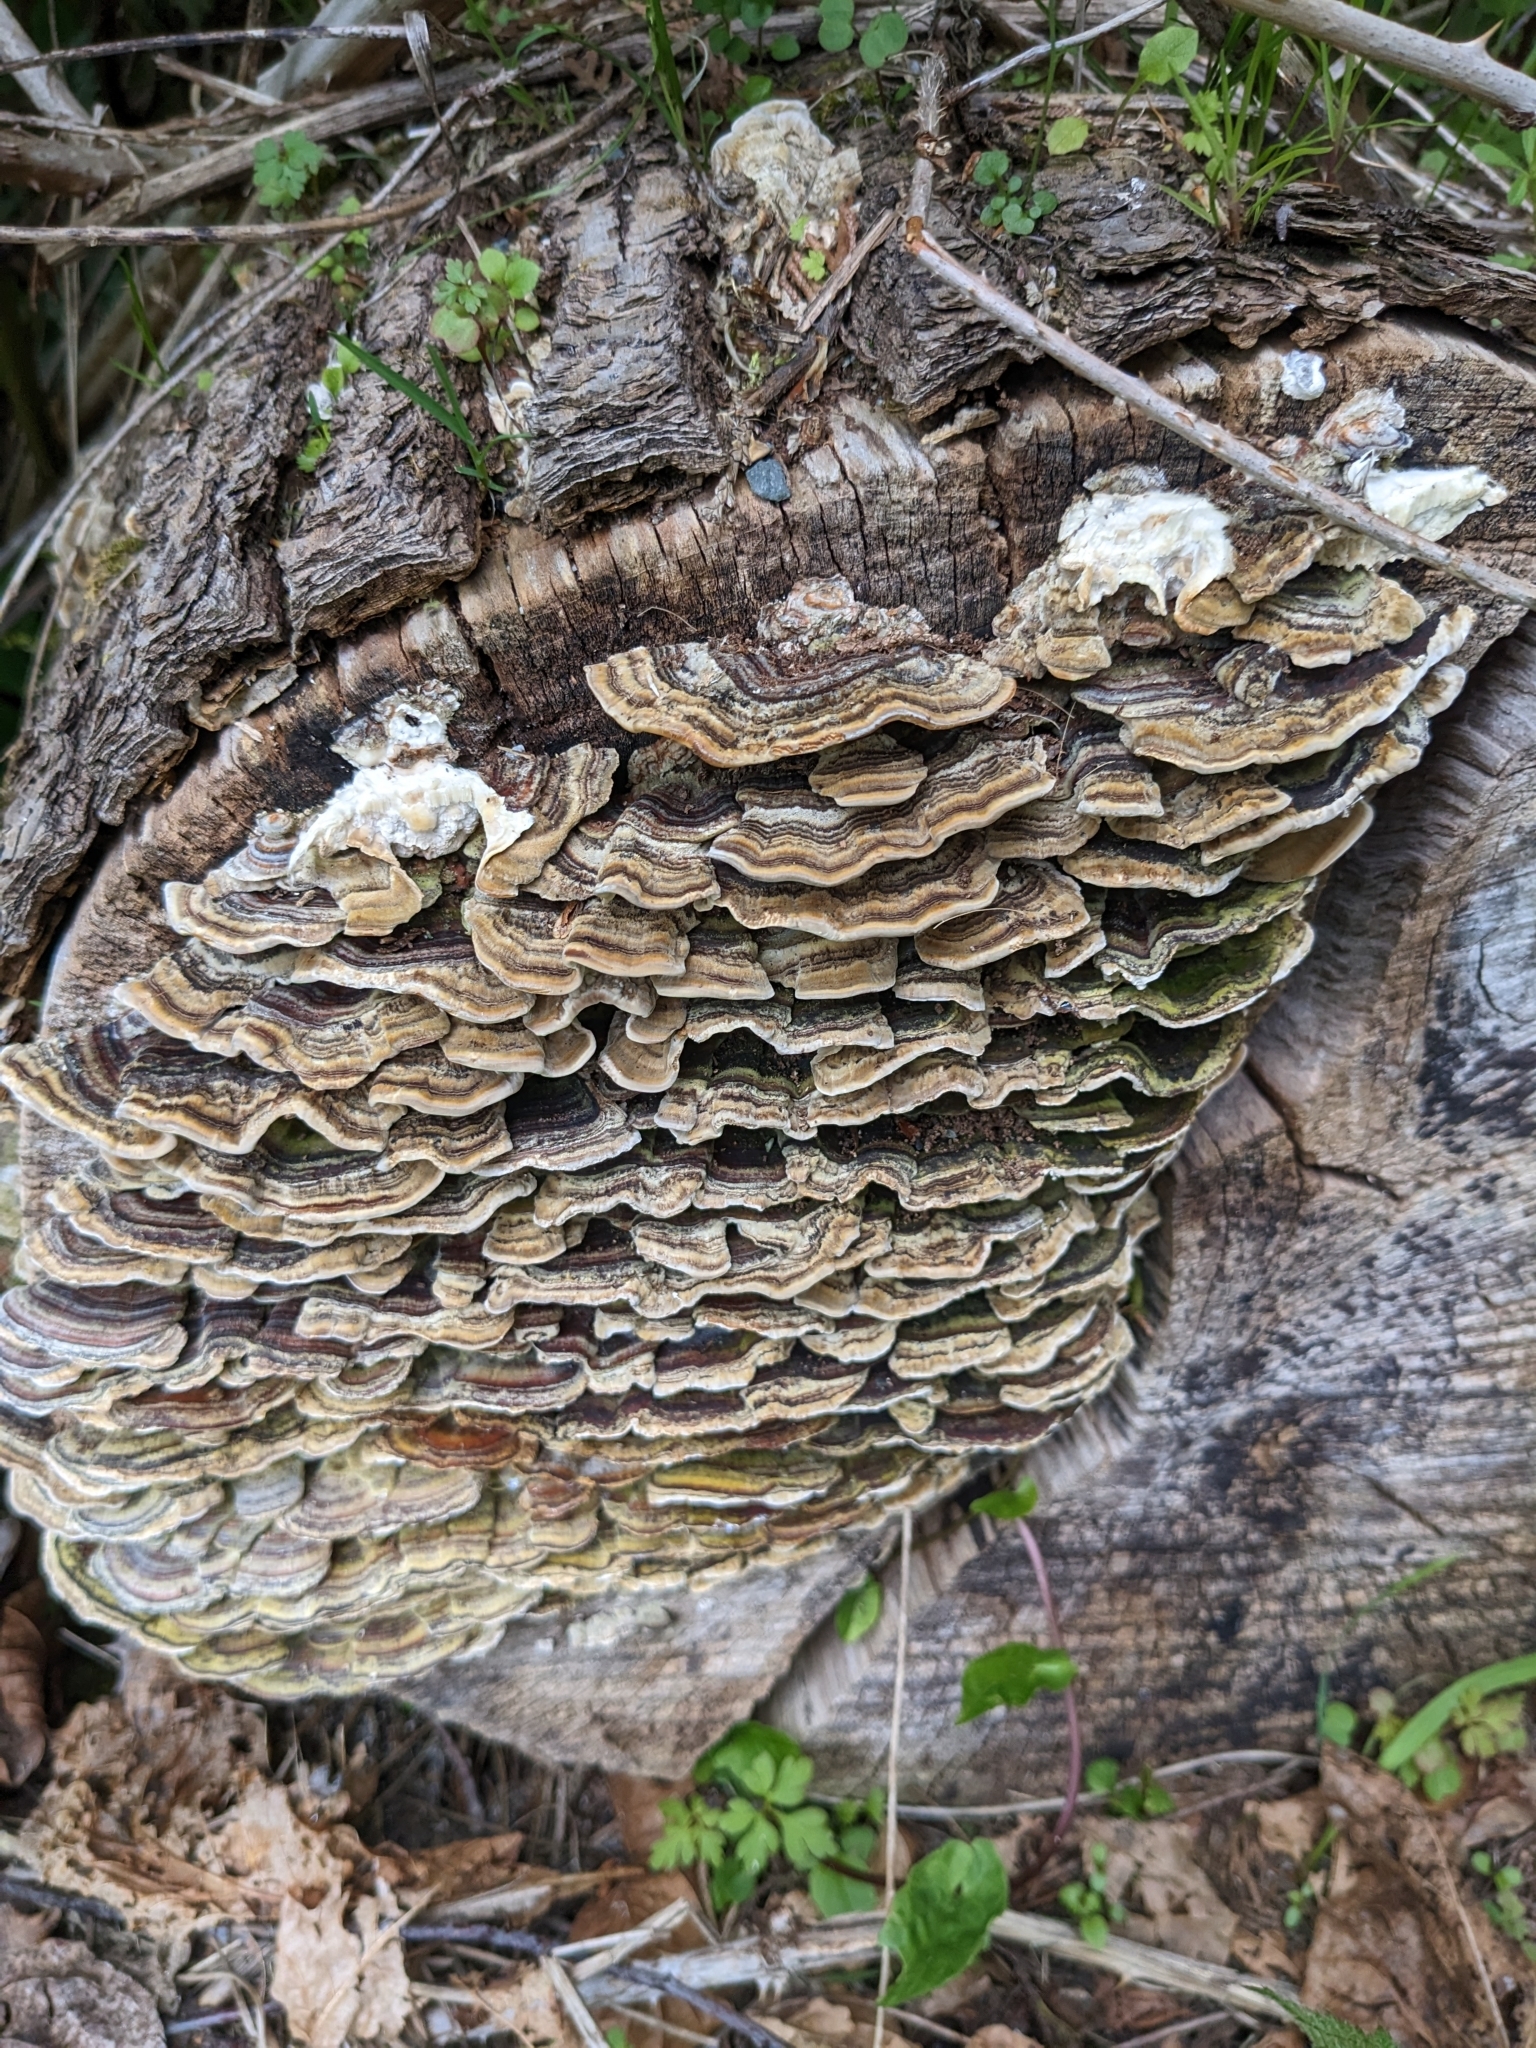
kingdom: Fungi
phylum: Basidiomycota
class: Agaricomycetes
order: Polyporales
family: Polyporaceae
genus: Trametes
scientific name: Trametes versicolor
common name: Turkeytail
